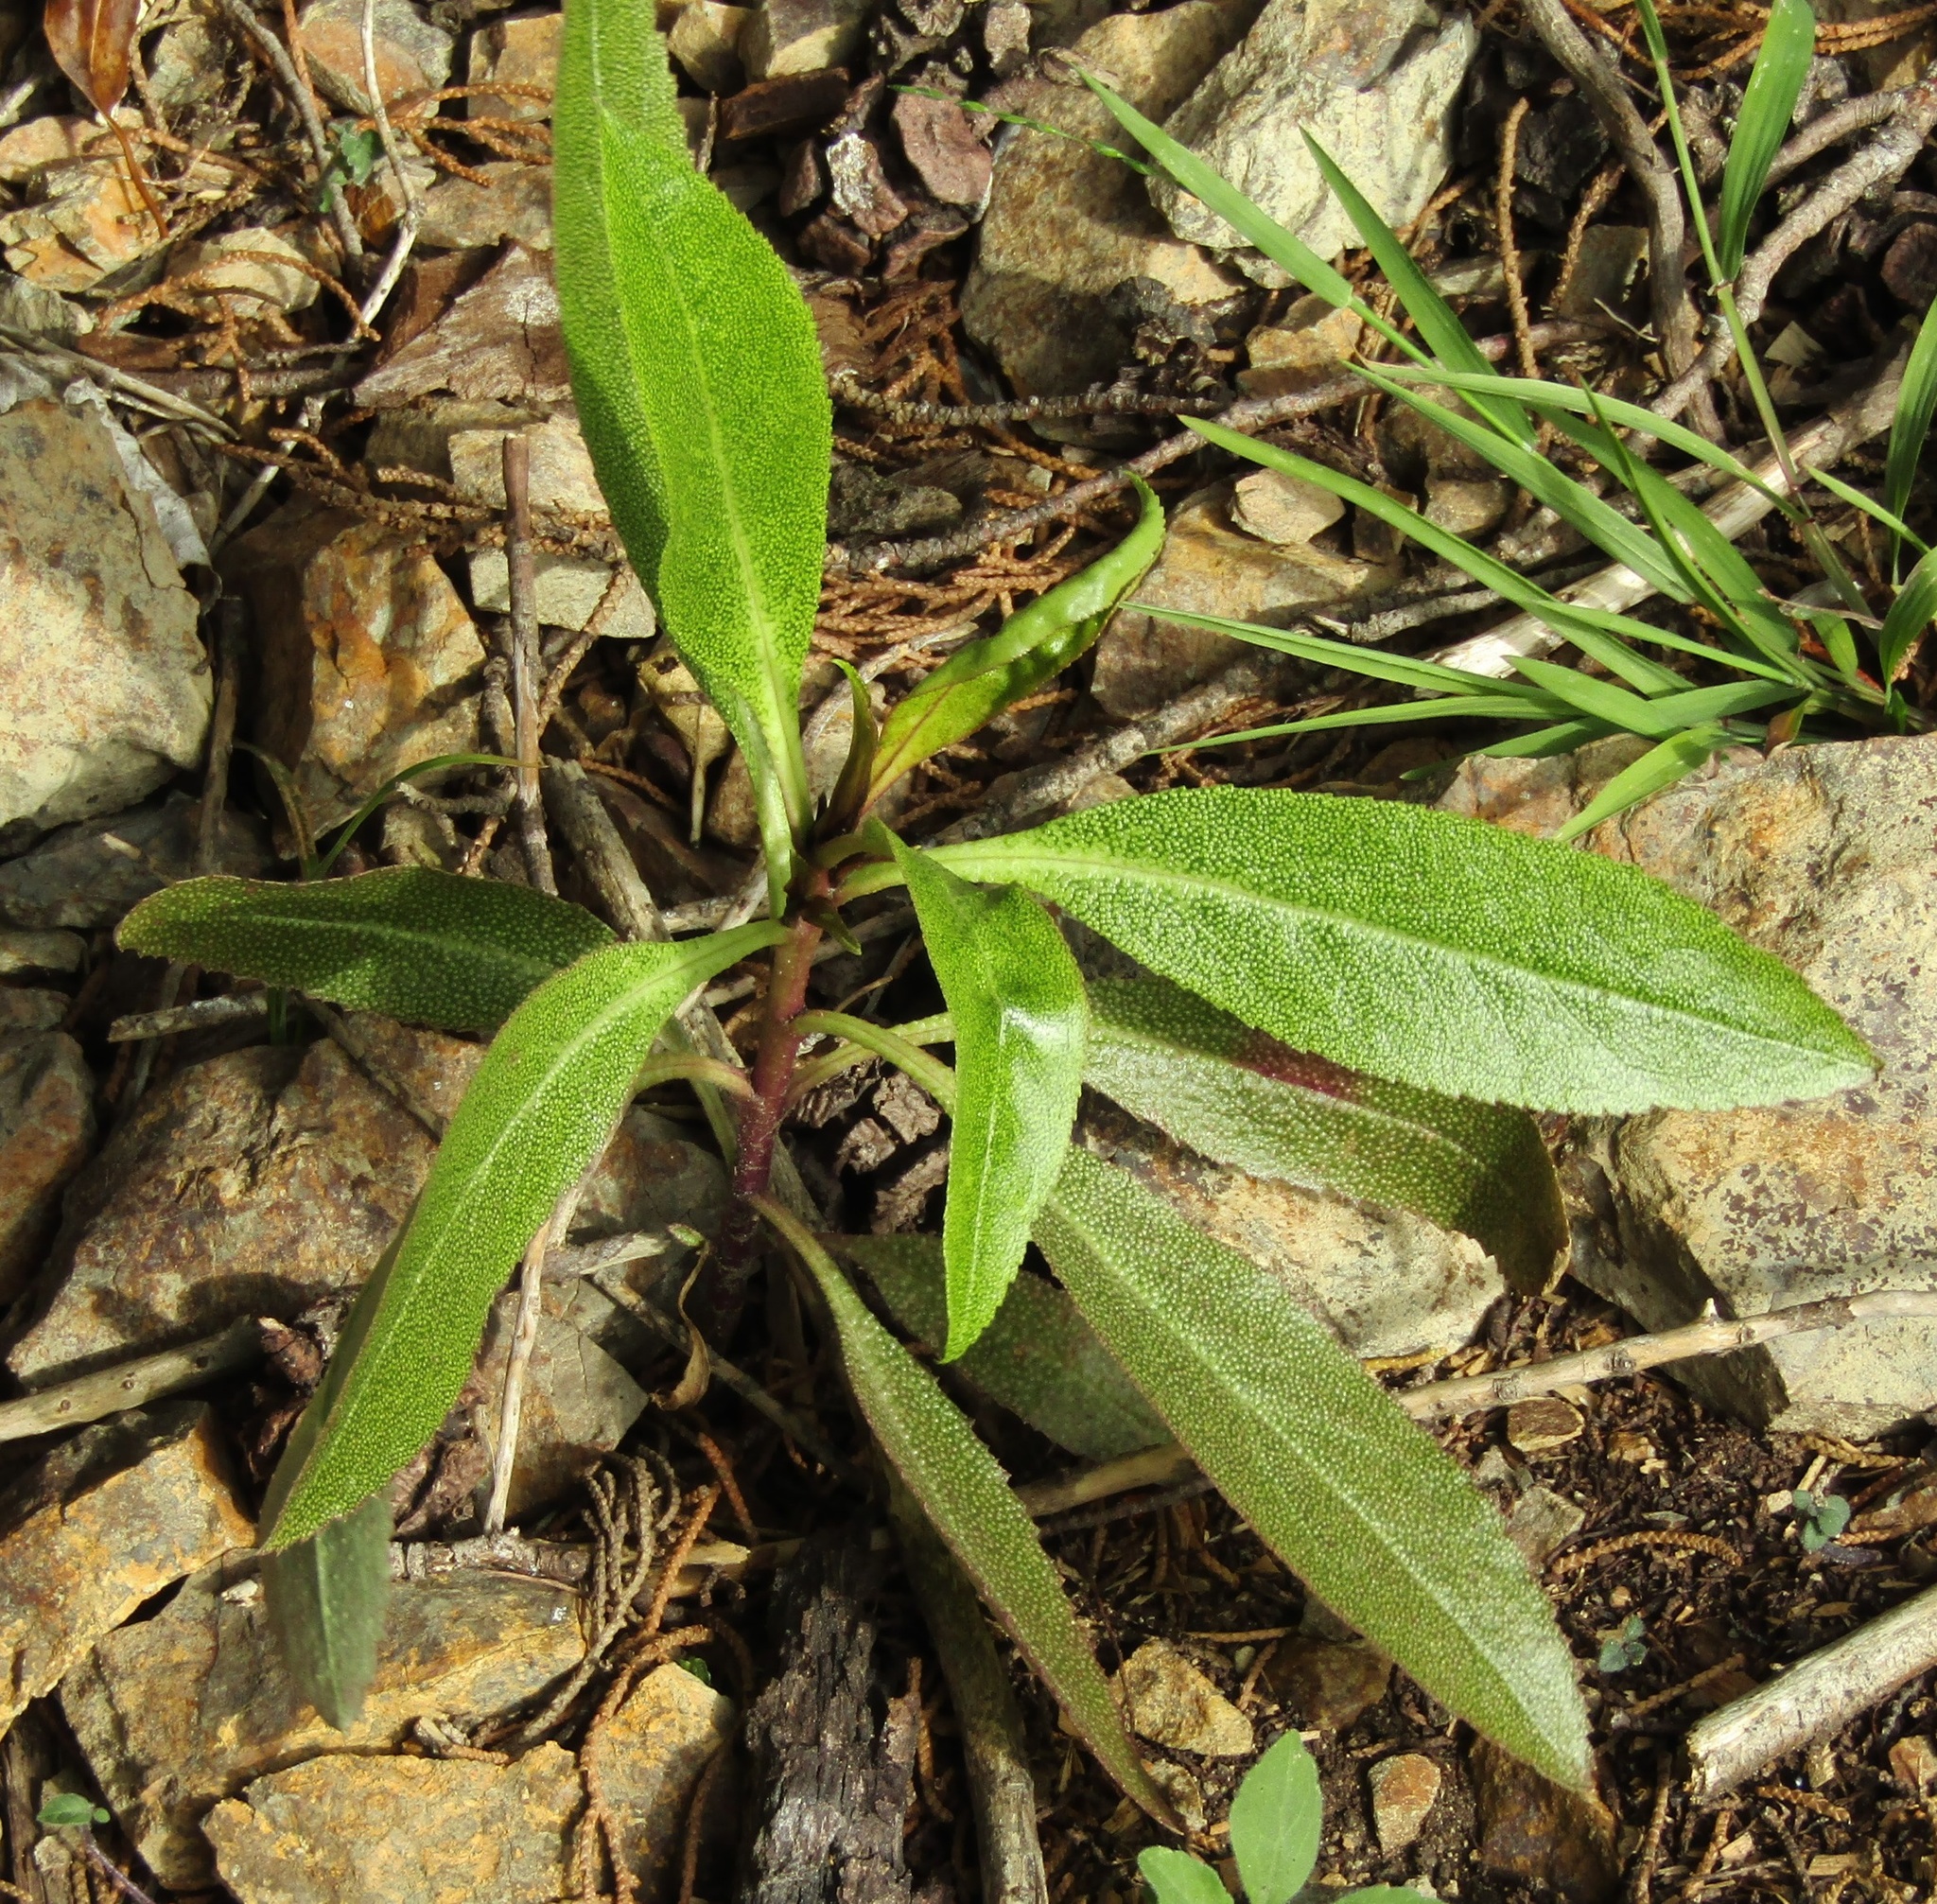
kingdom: Plantae
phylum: Tracheophyta
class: Magnoliopsida
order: Lamiales
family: Scrophulariaceae
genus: Myoporum
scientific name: Myoporum laetum
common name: Ngaio tree
